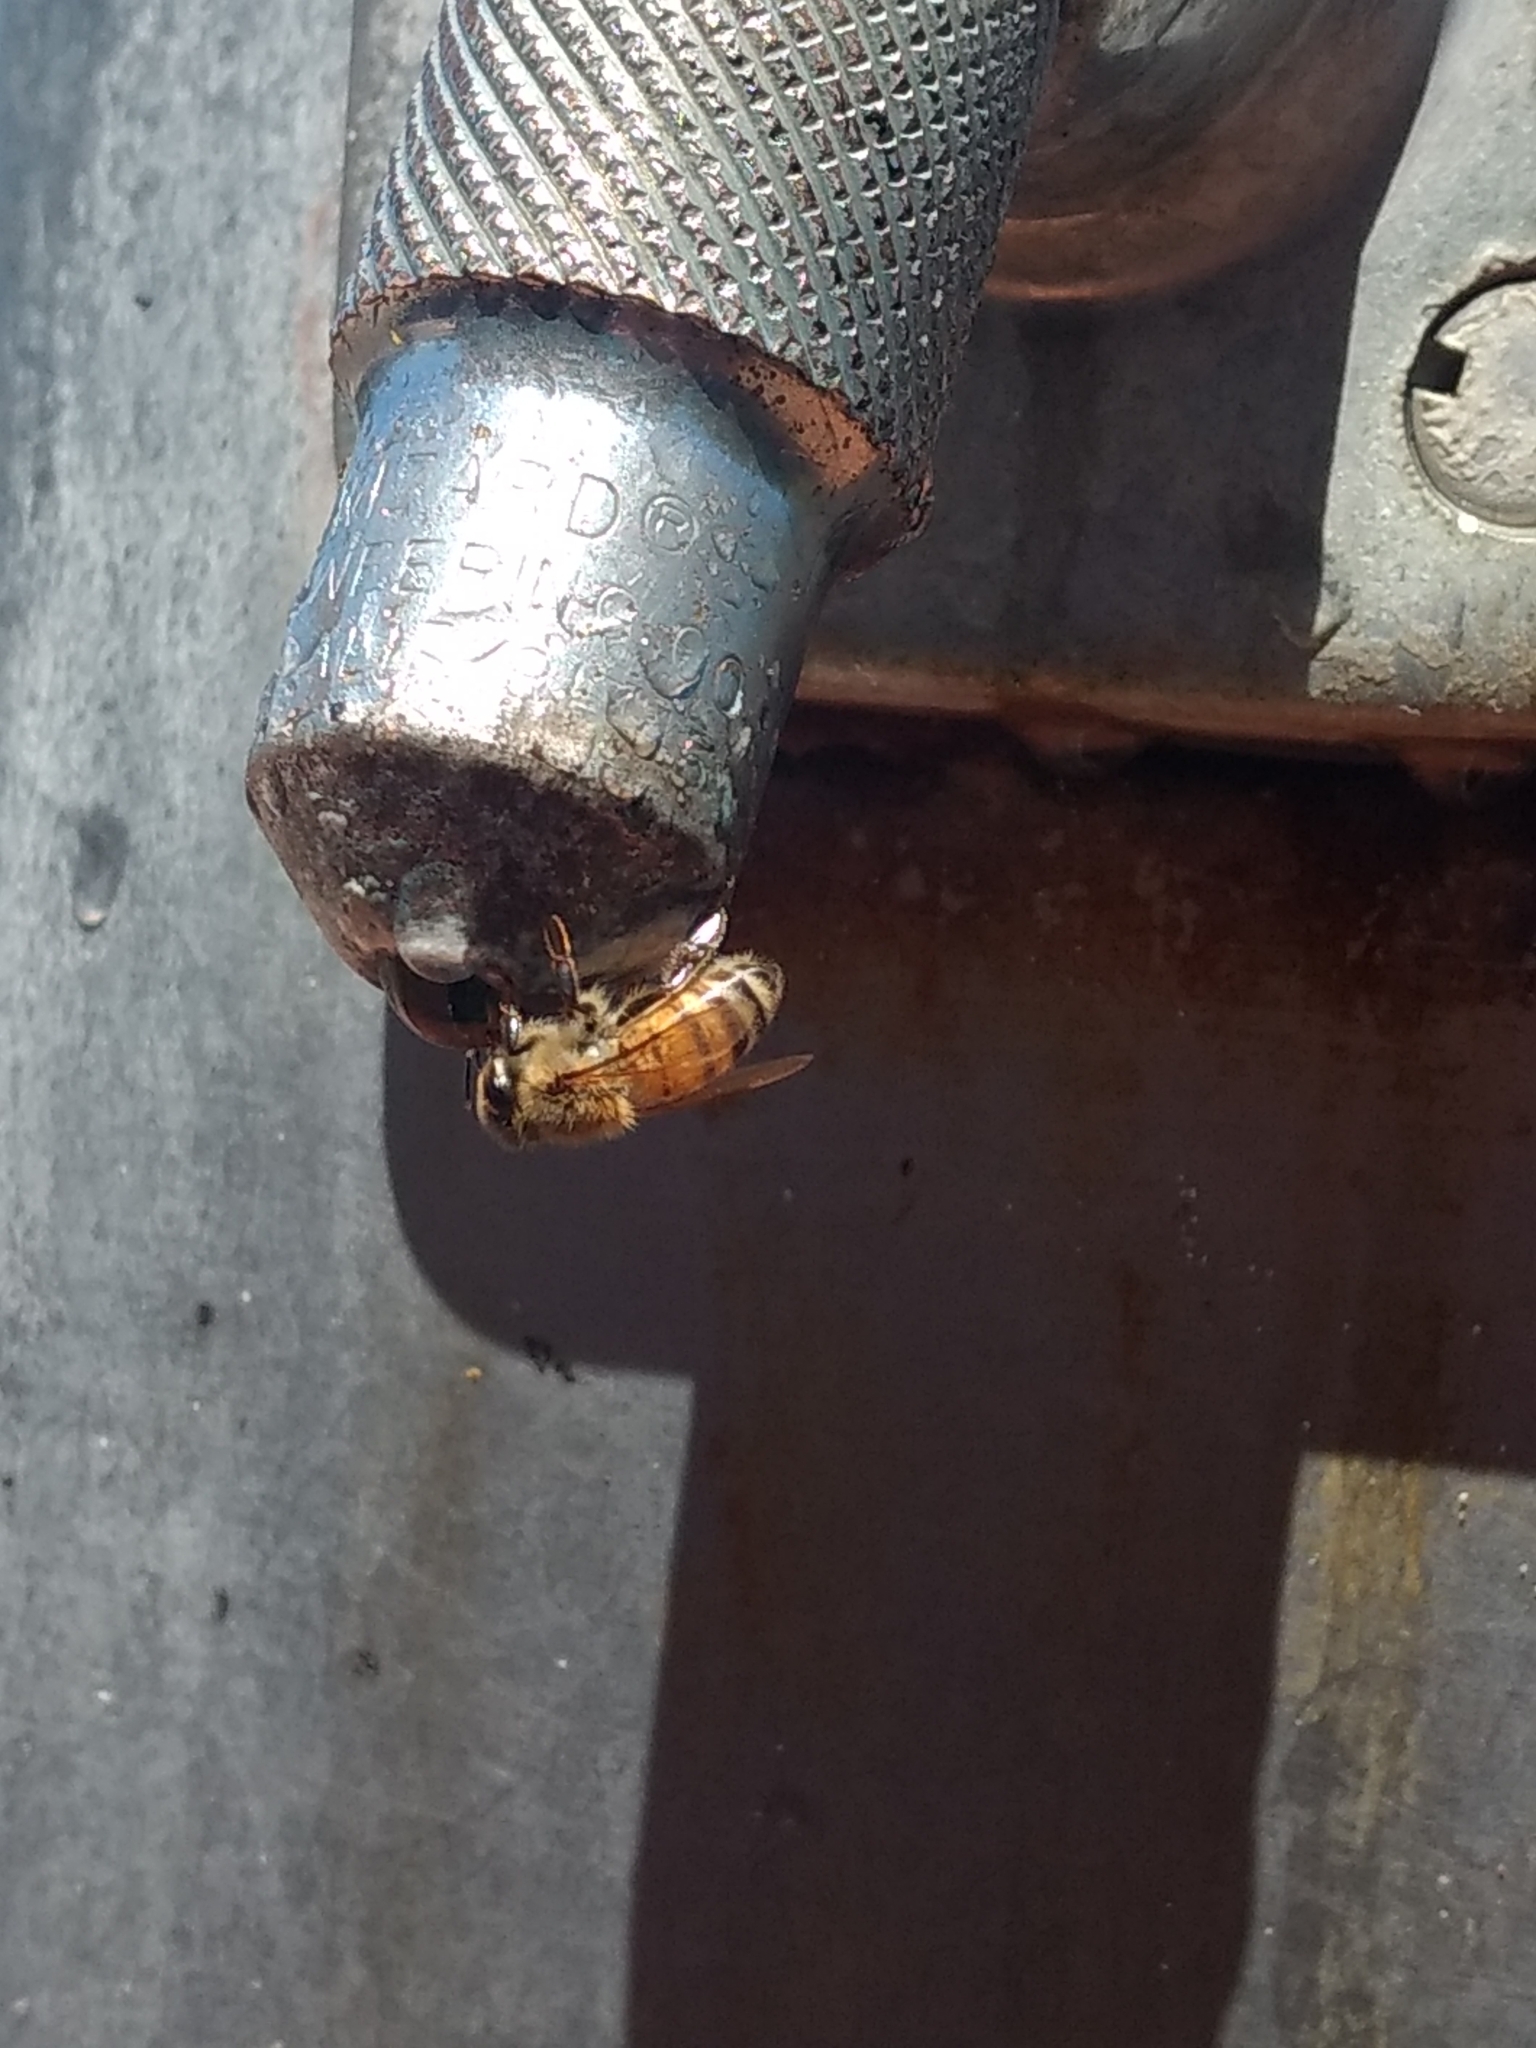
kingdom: Animalia
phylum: Arthropoda
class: Insecta
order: Hymenoptera
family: Apidae
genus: Apis
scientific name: Apis mellifera
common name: Honey bee
